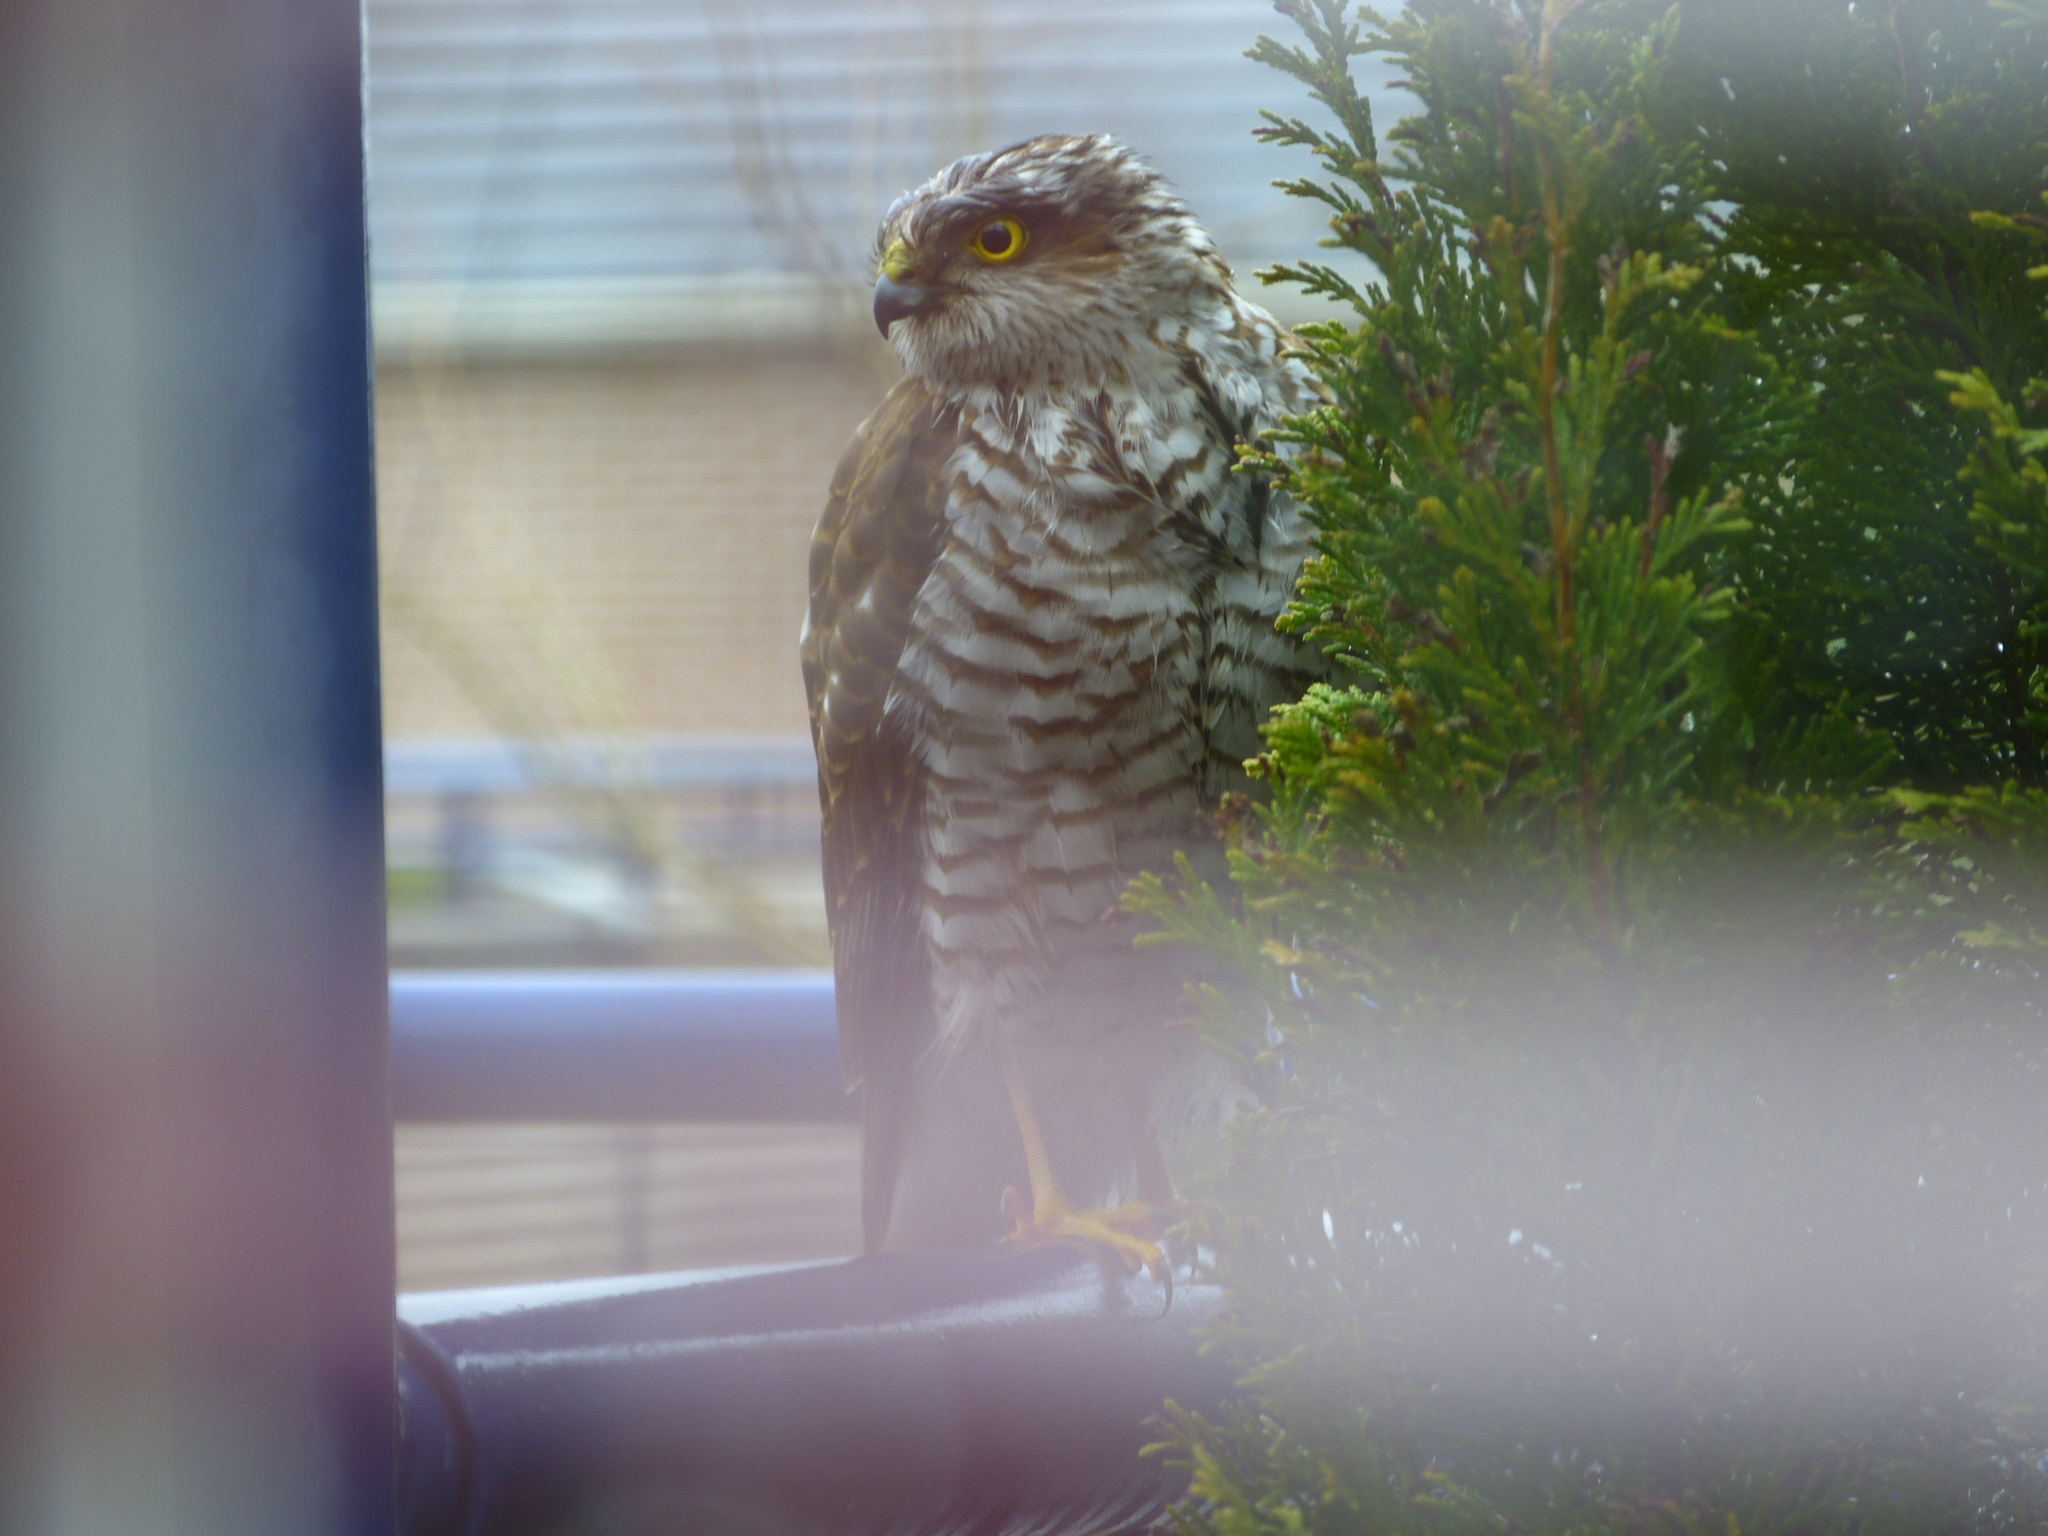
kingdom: Animalia
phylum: Chordata
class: Aves
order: Accipitriformes
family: Accipitridae
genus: Accipiter
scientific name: Accipiter nisus
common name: Eurasian sparrowhawk
